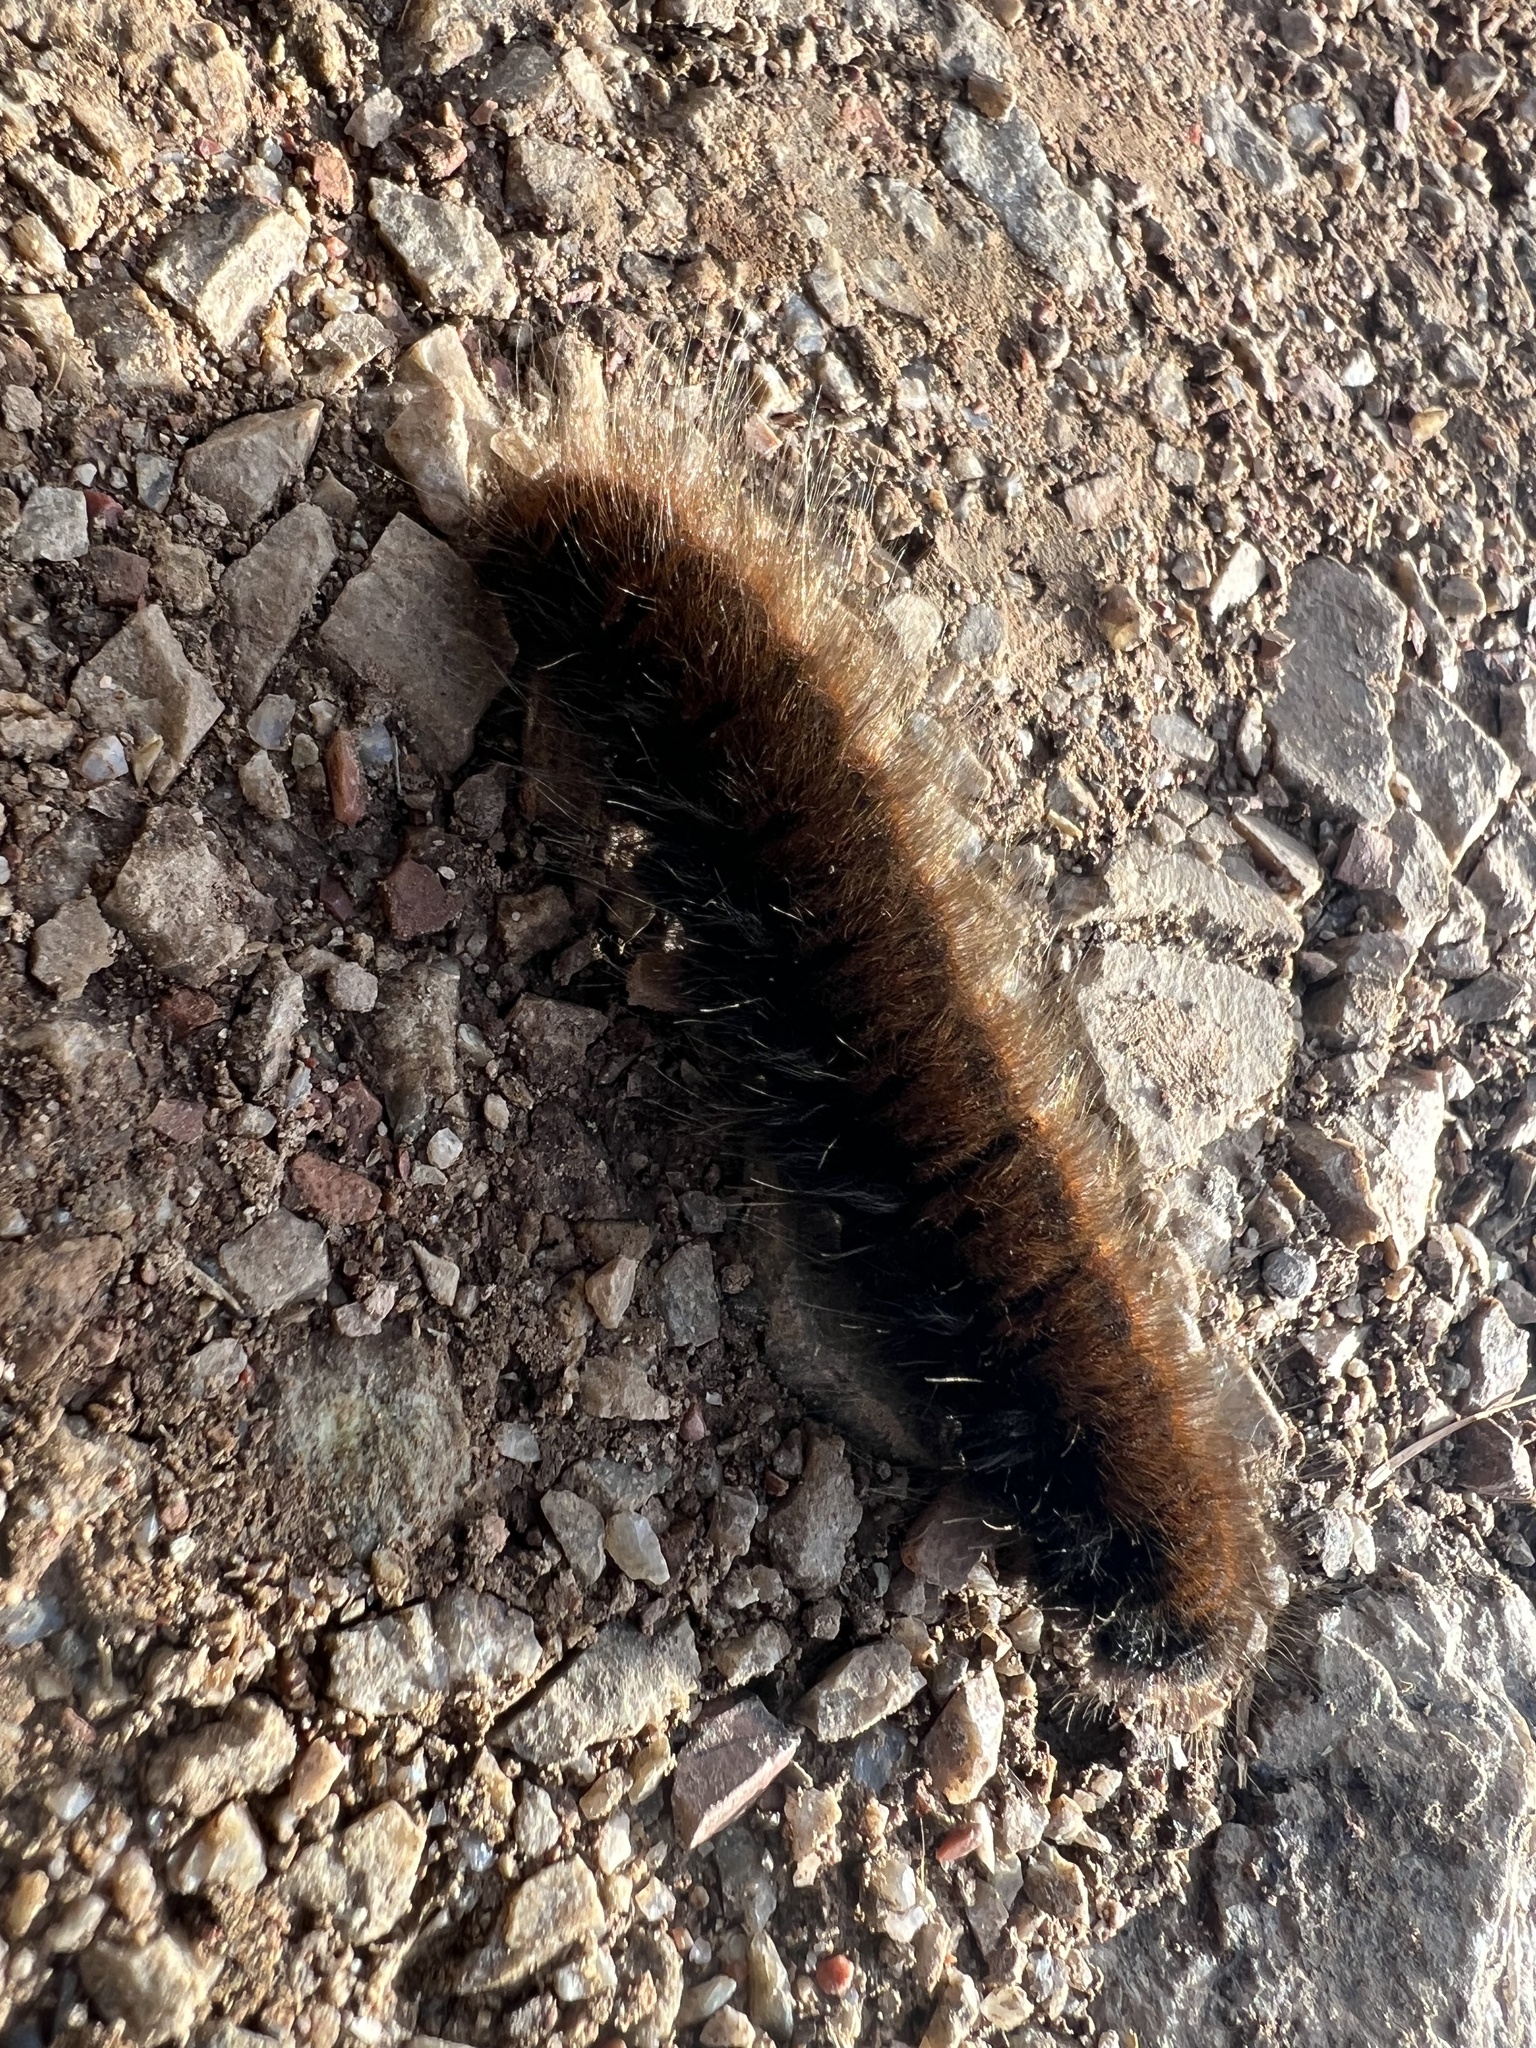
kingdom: Animalia
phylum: Arthropoda
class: Insecta
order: Lepidoptera
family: Lasiocampidae
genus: Macrothylacia
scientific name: Macrothylacia rubi
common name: Fox moth
